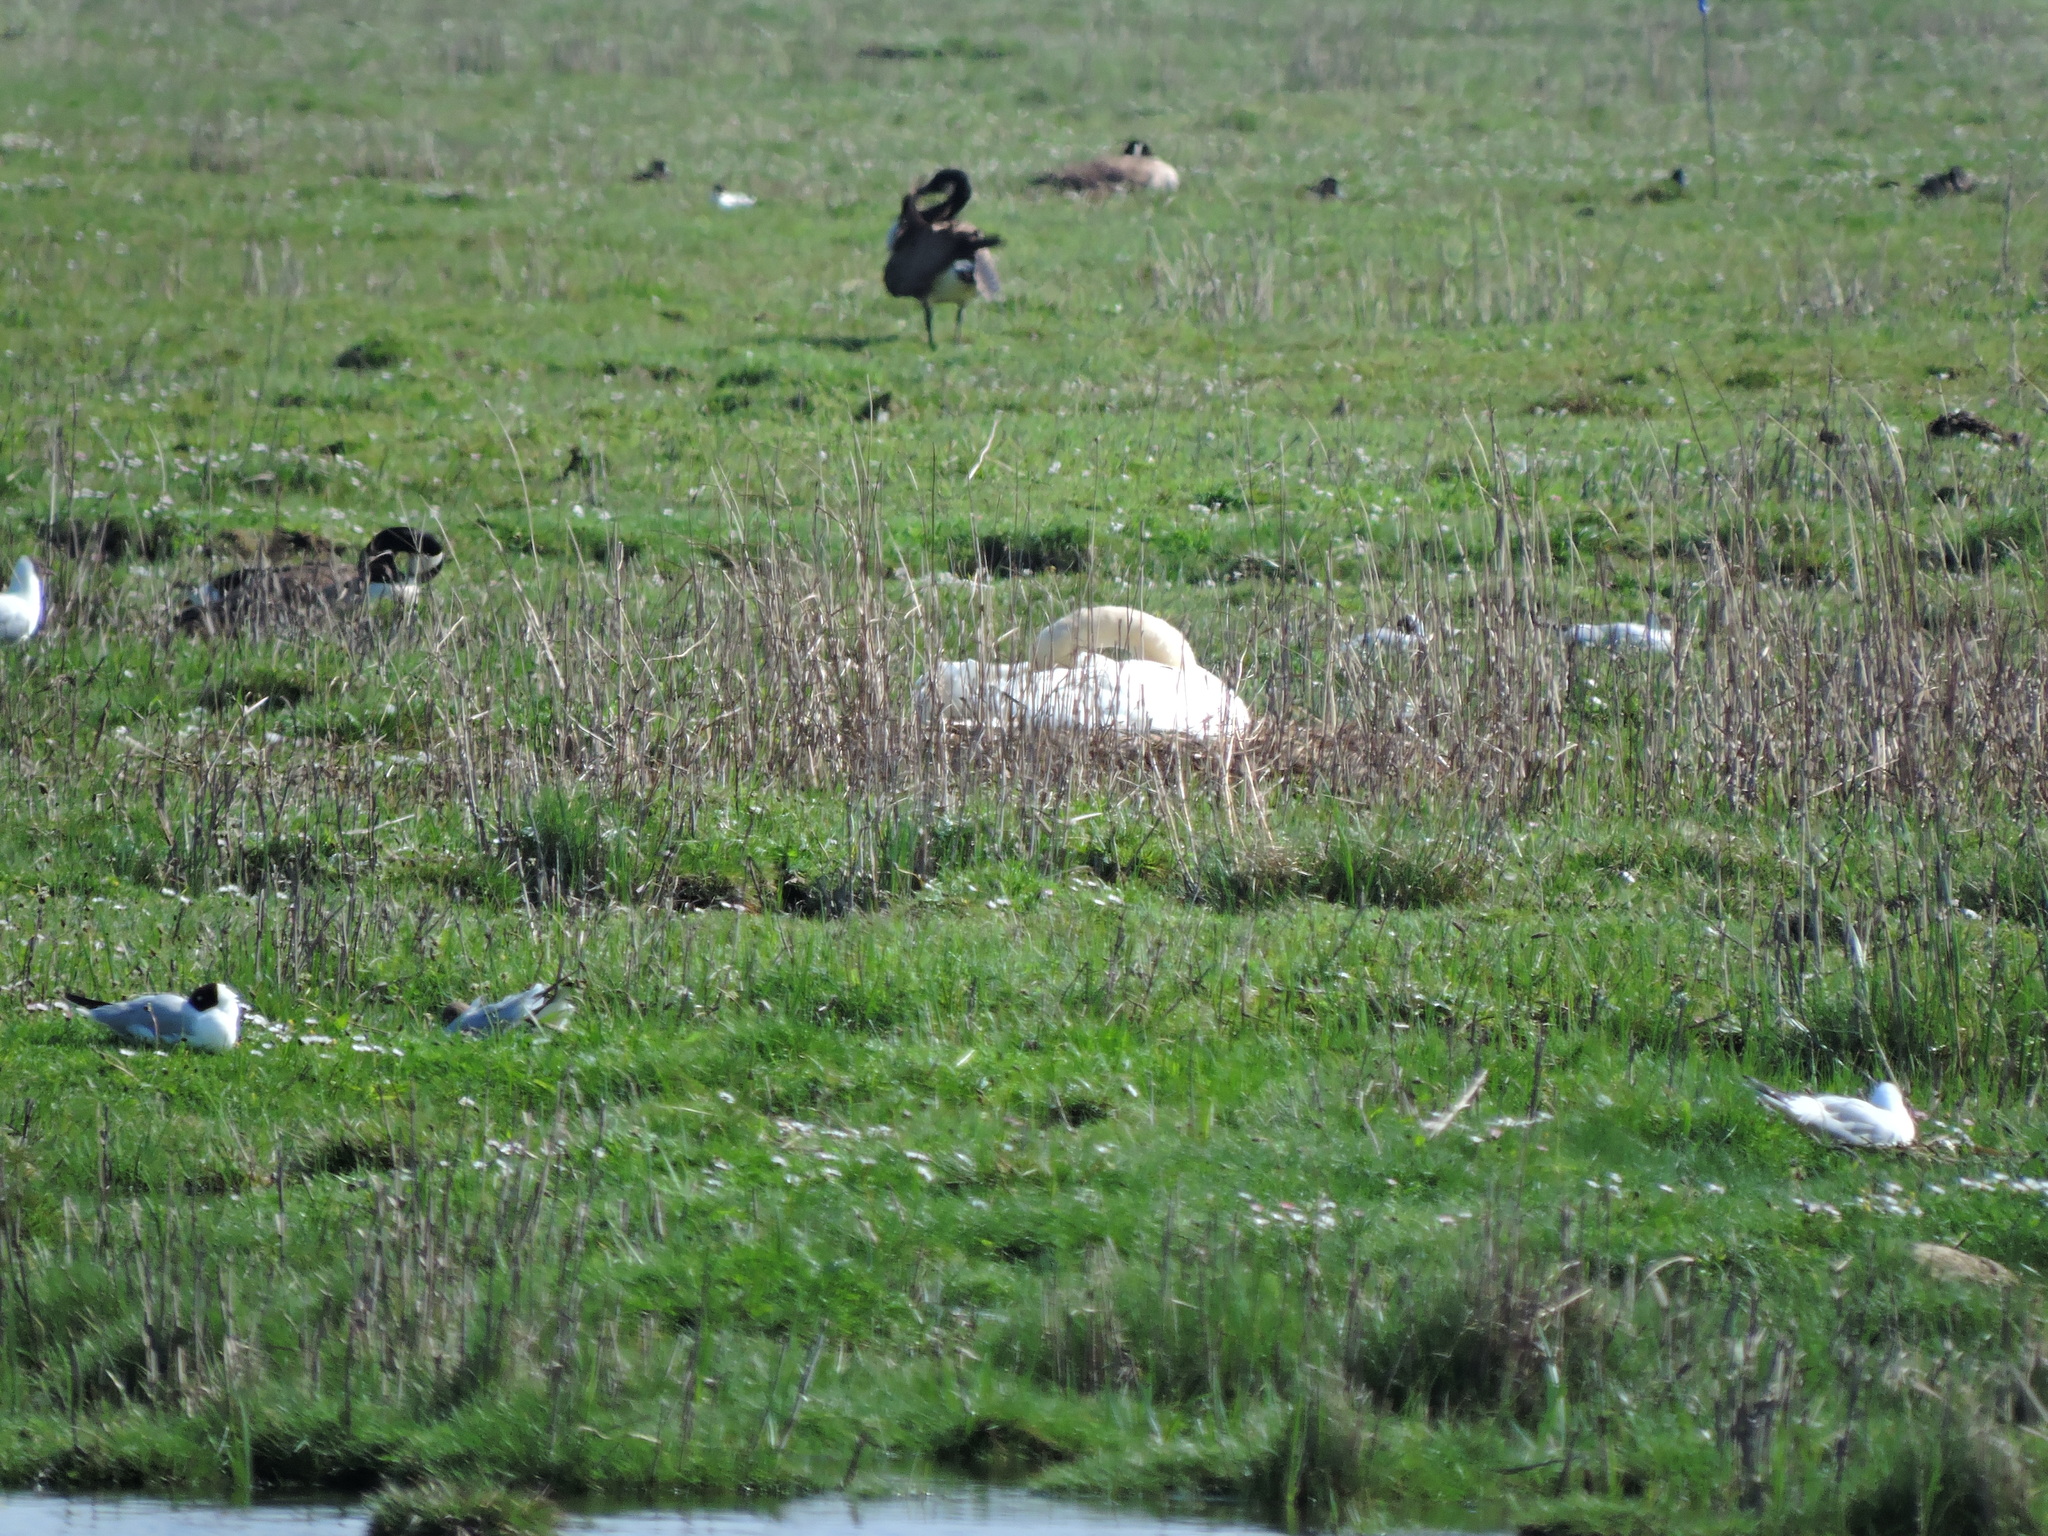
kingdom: Animalia
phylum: Chordata
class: Aves
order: Anseriformes
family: Anatidae
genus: Cygnus
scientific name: Cygnus olor
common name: Mute swan
